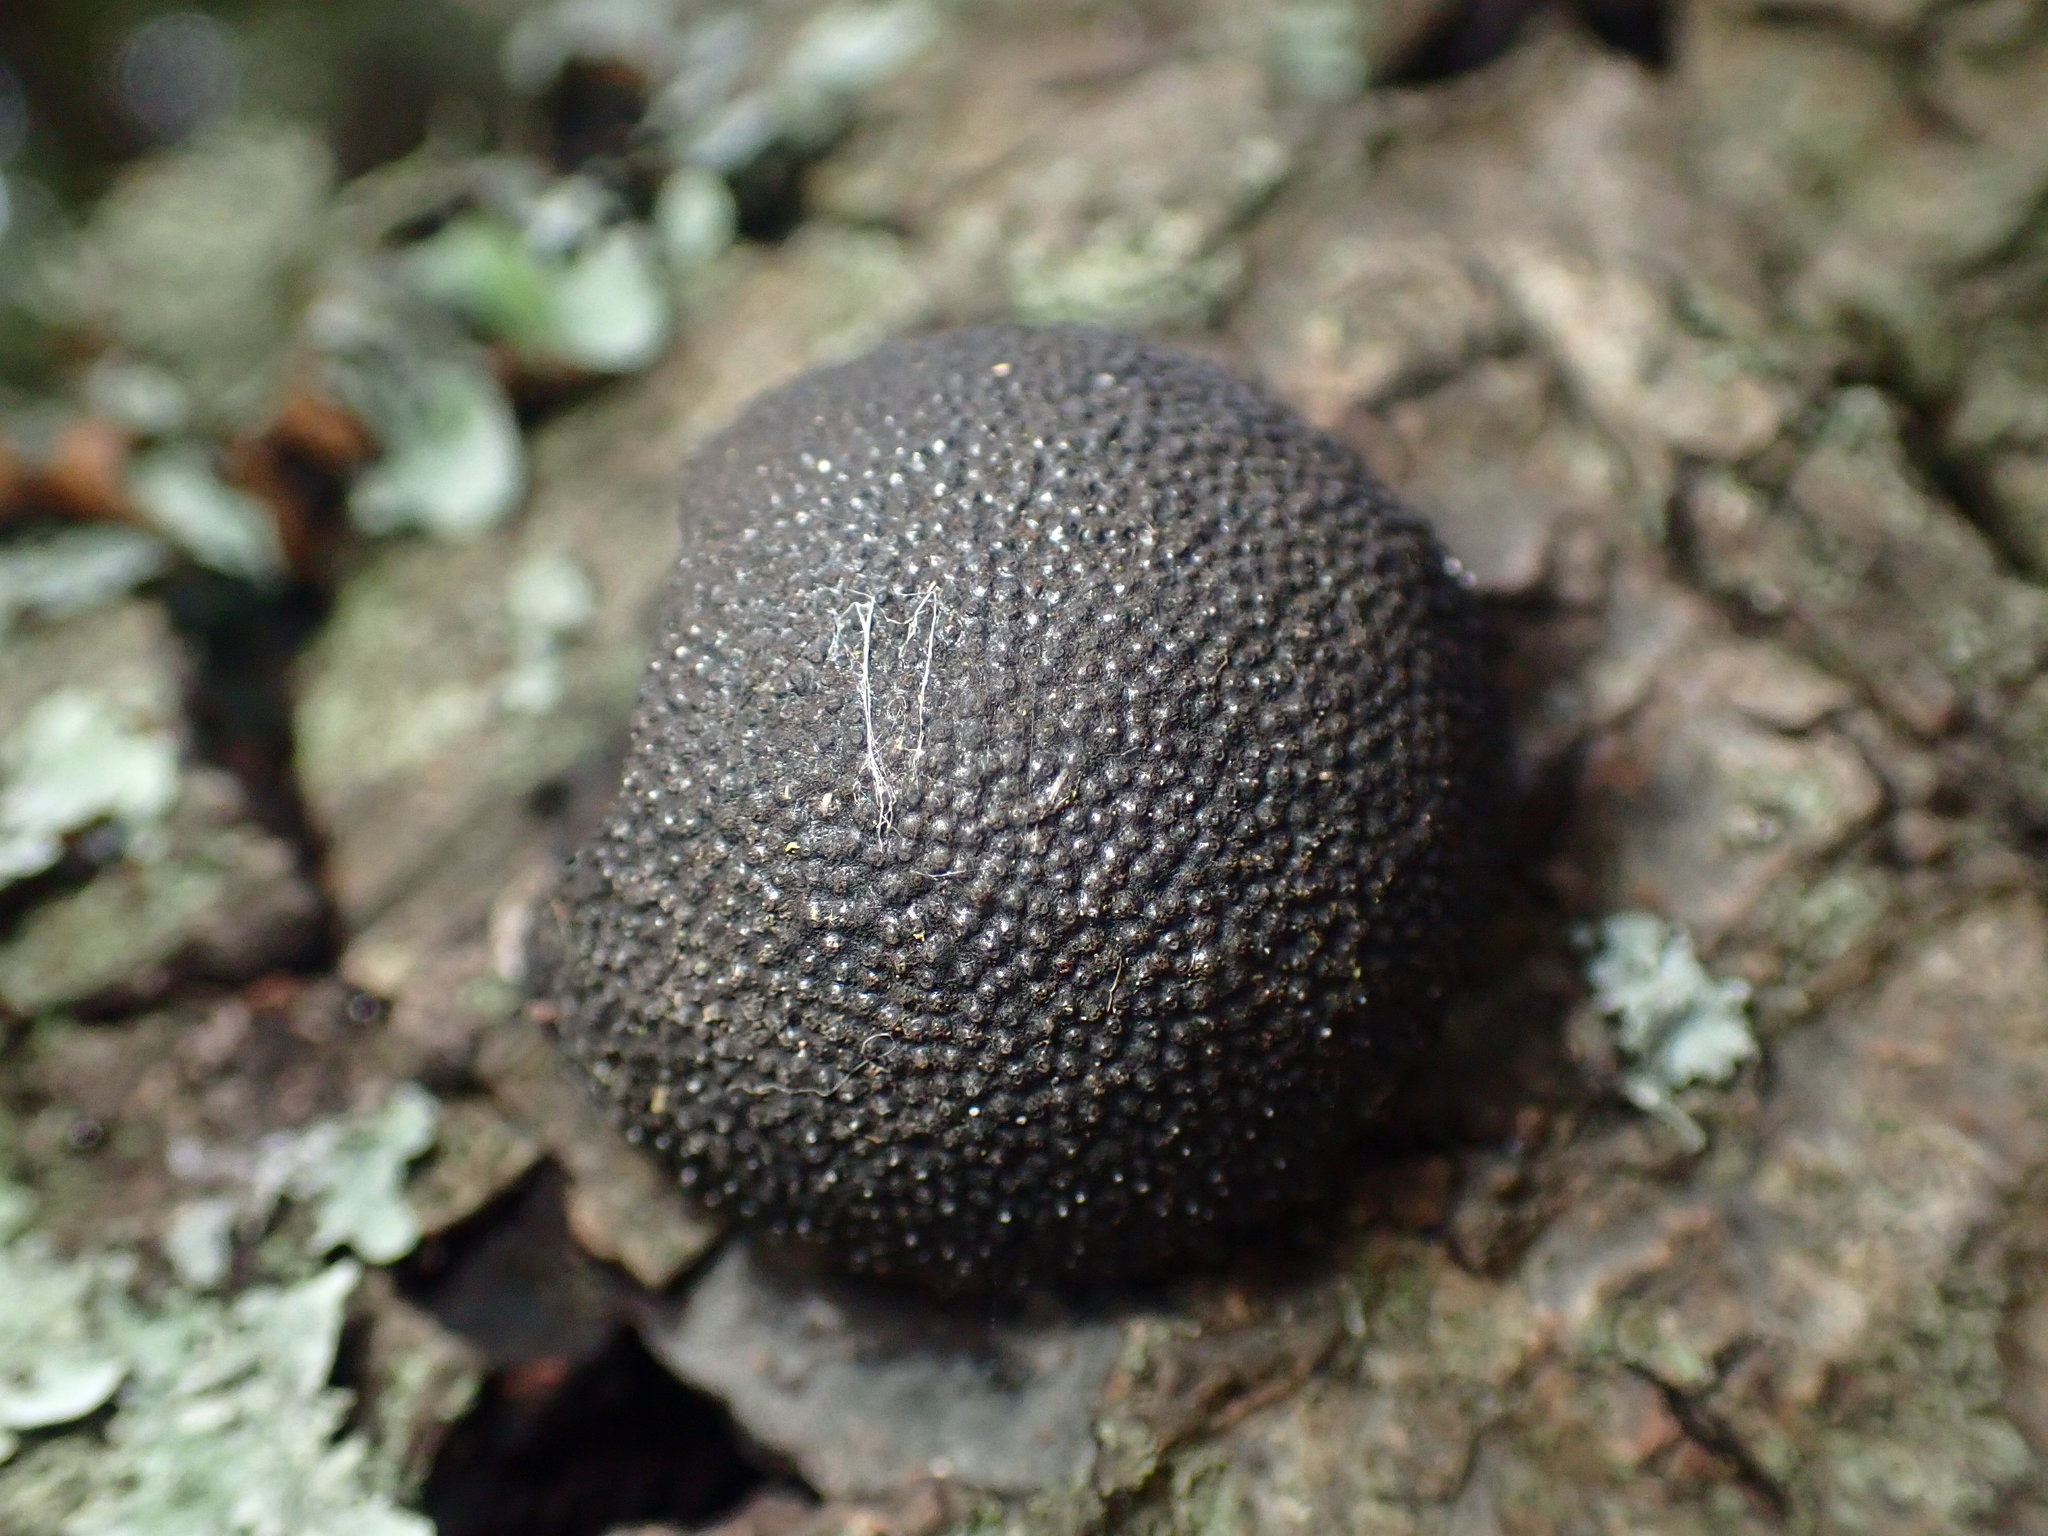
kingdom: Fungi
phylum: Ascomycota
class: Sordariomycetes
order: Xylariales
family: Hypoxylaceae
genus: Annulohypoxylon
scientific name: Annulohypoxylon thouarsianum
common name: Cramp balls
